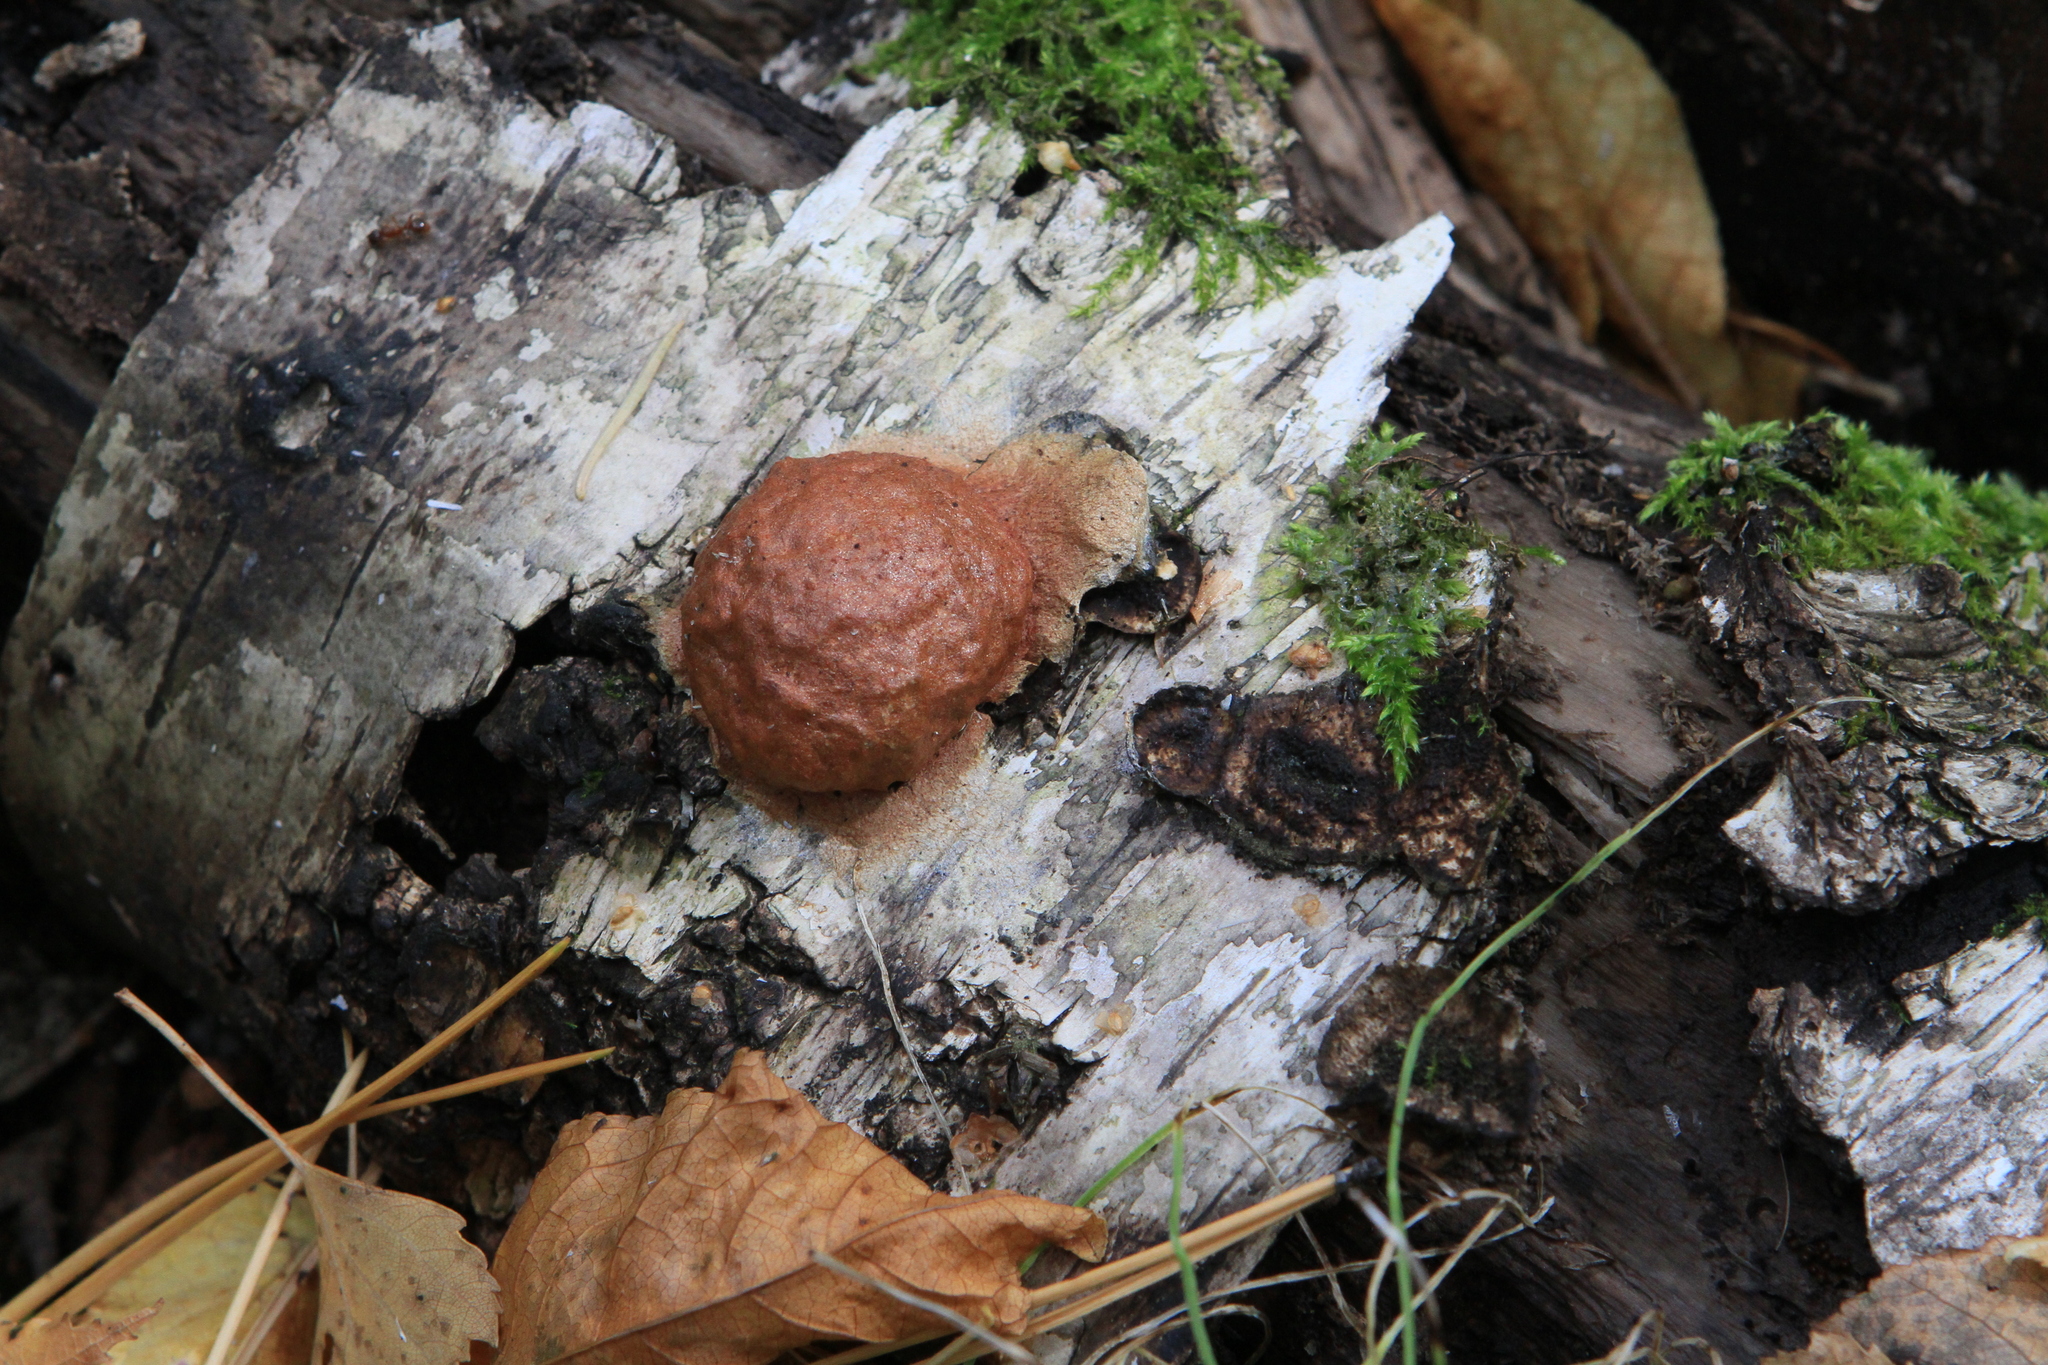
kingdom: Protozoa
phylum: Mycetozoa
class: Myxomycetes
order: Physarales
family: Physaraceae
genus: Fuligo
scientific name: Fuligo leviderma
